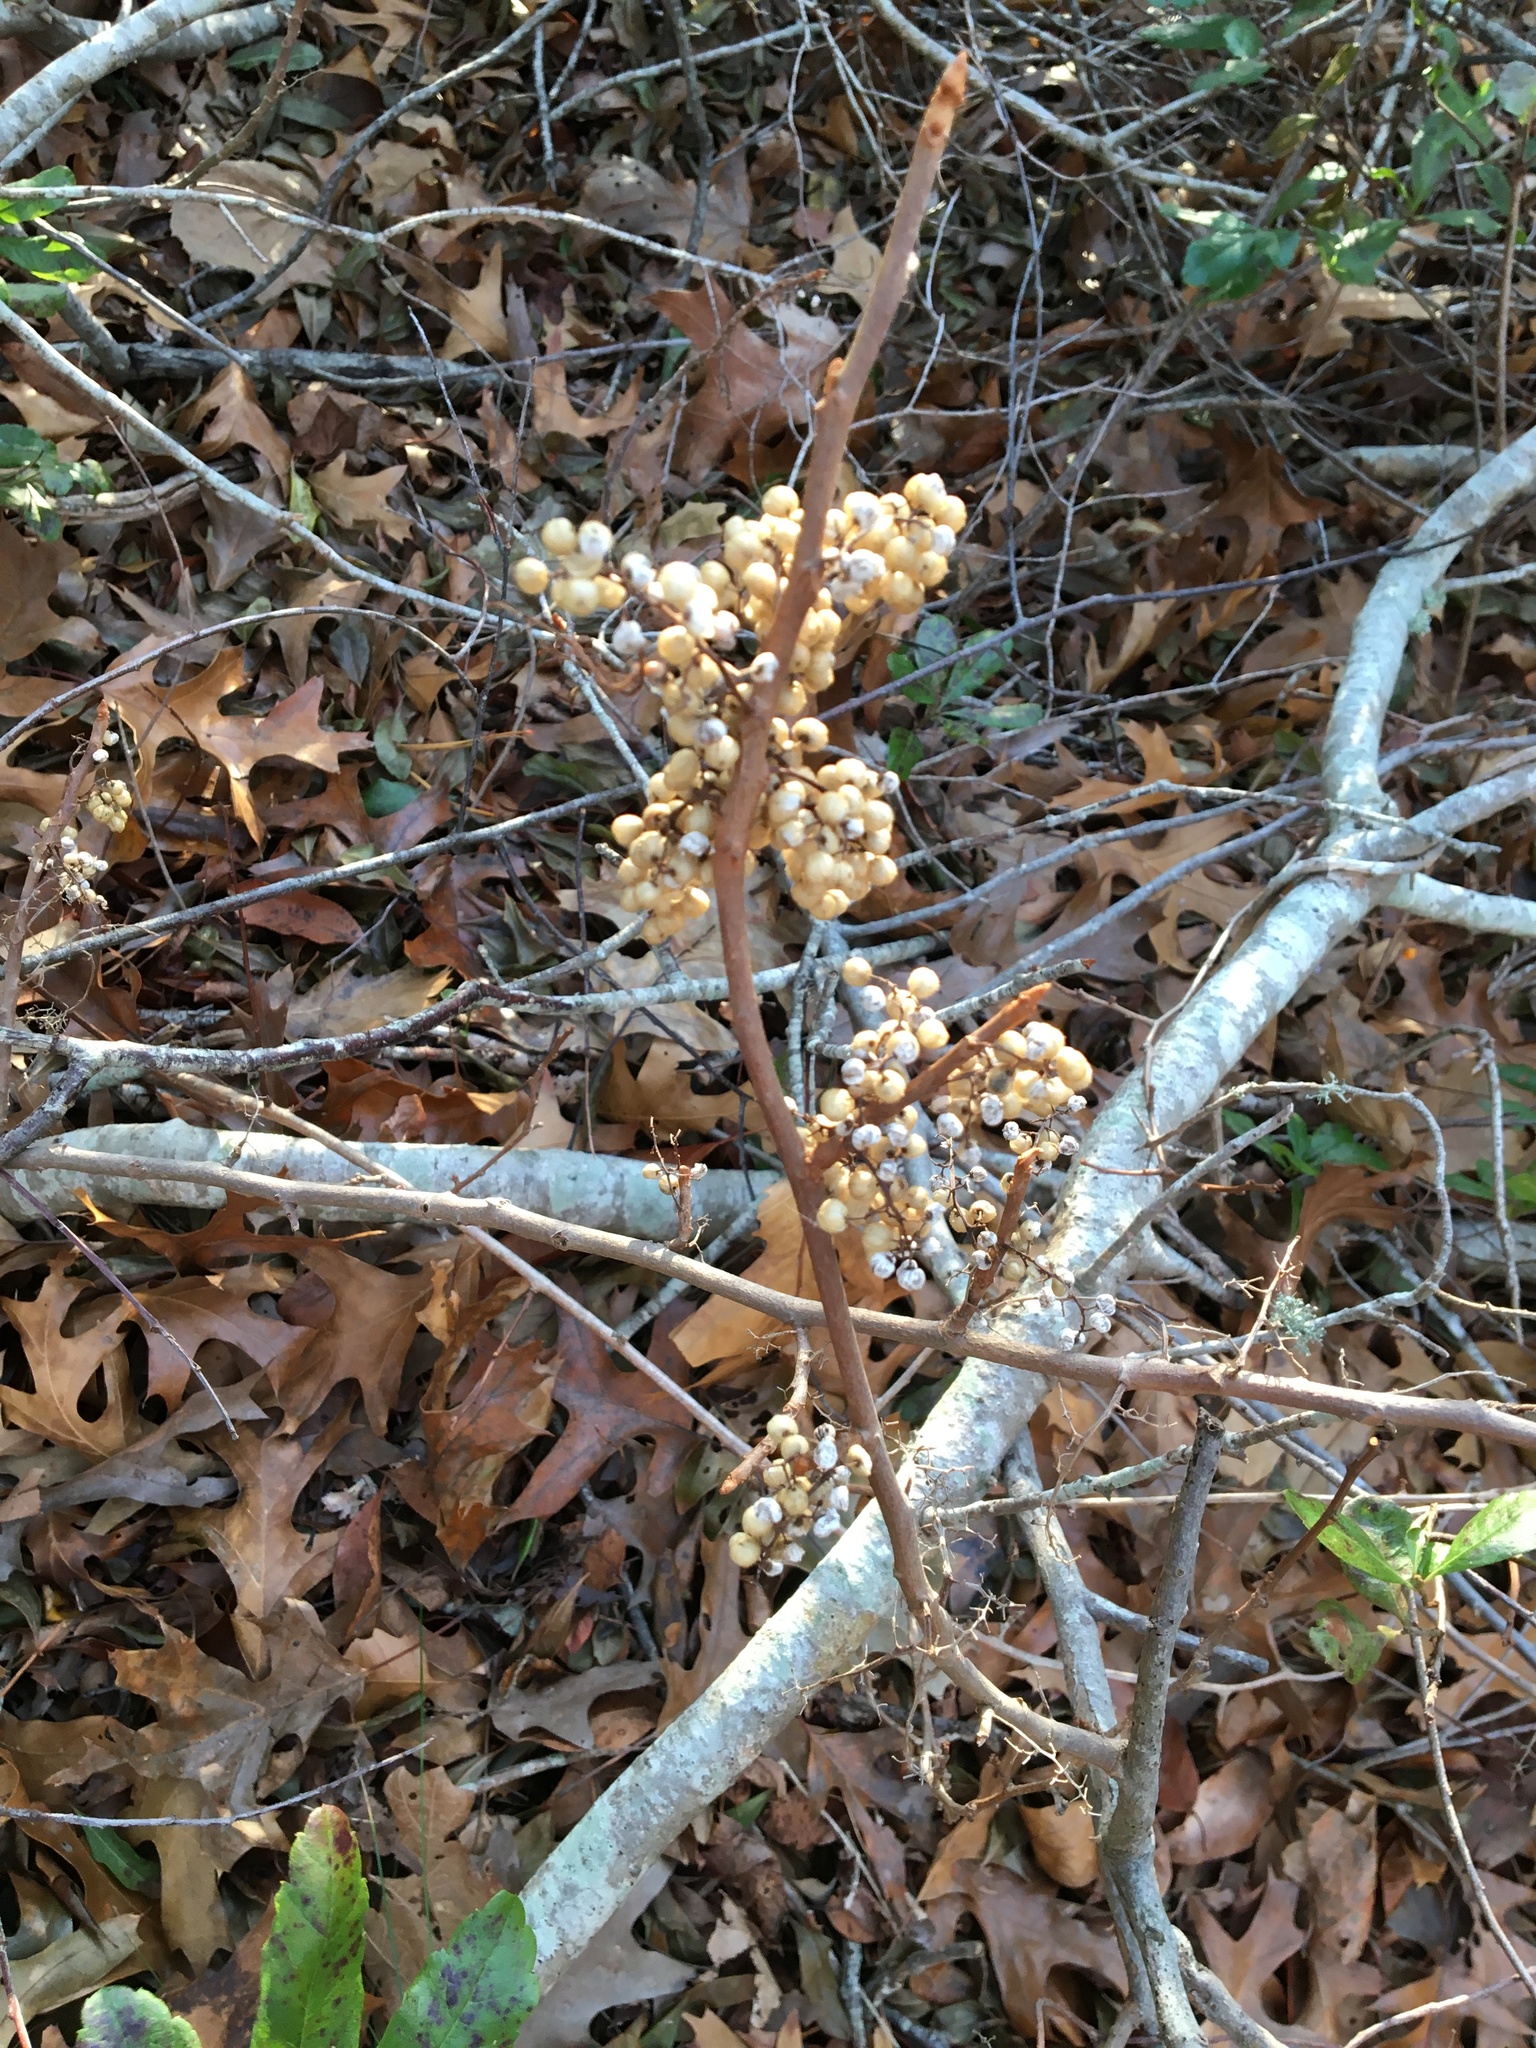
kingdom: Plantae
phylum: Tracheophyta
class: Magnoliopsida
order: Sapindales
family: Anacardiaceae
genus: Toxicodendron
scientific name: Toxicodendron radicans
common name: Poison ivy
